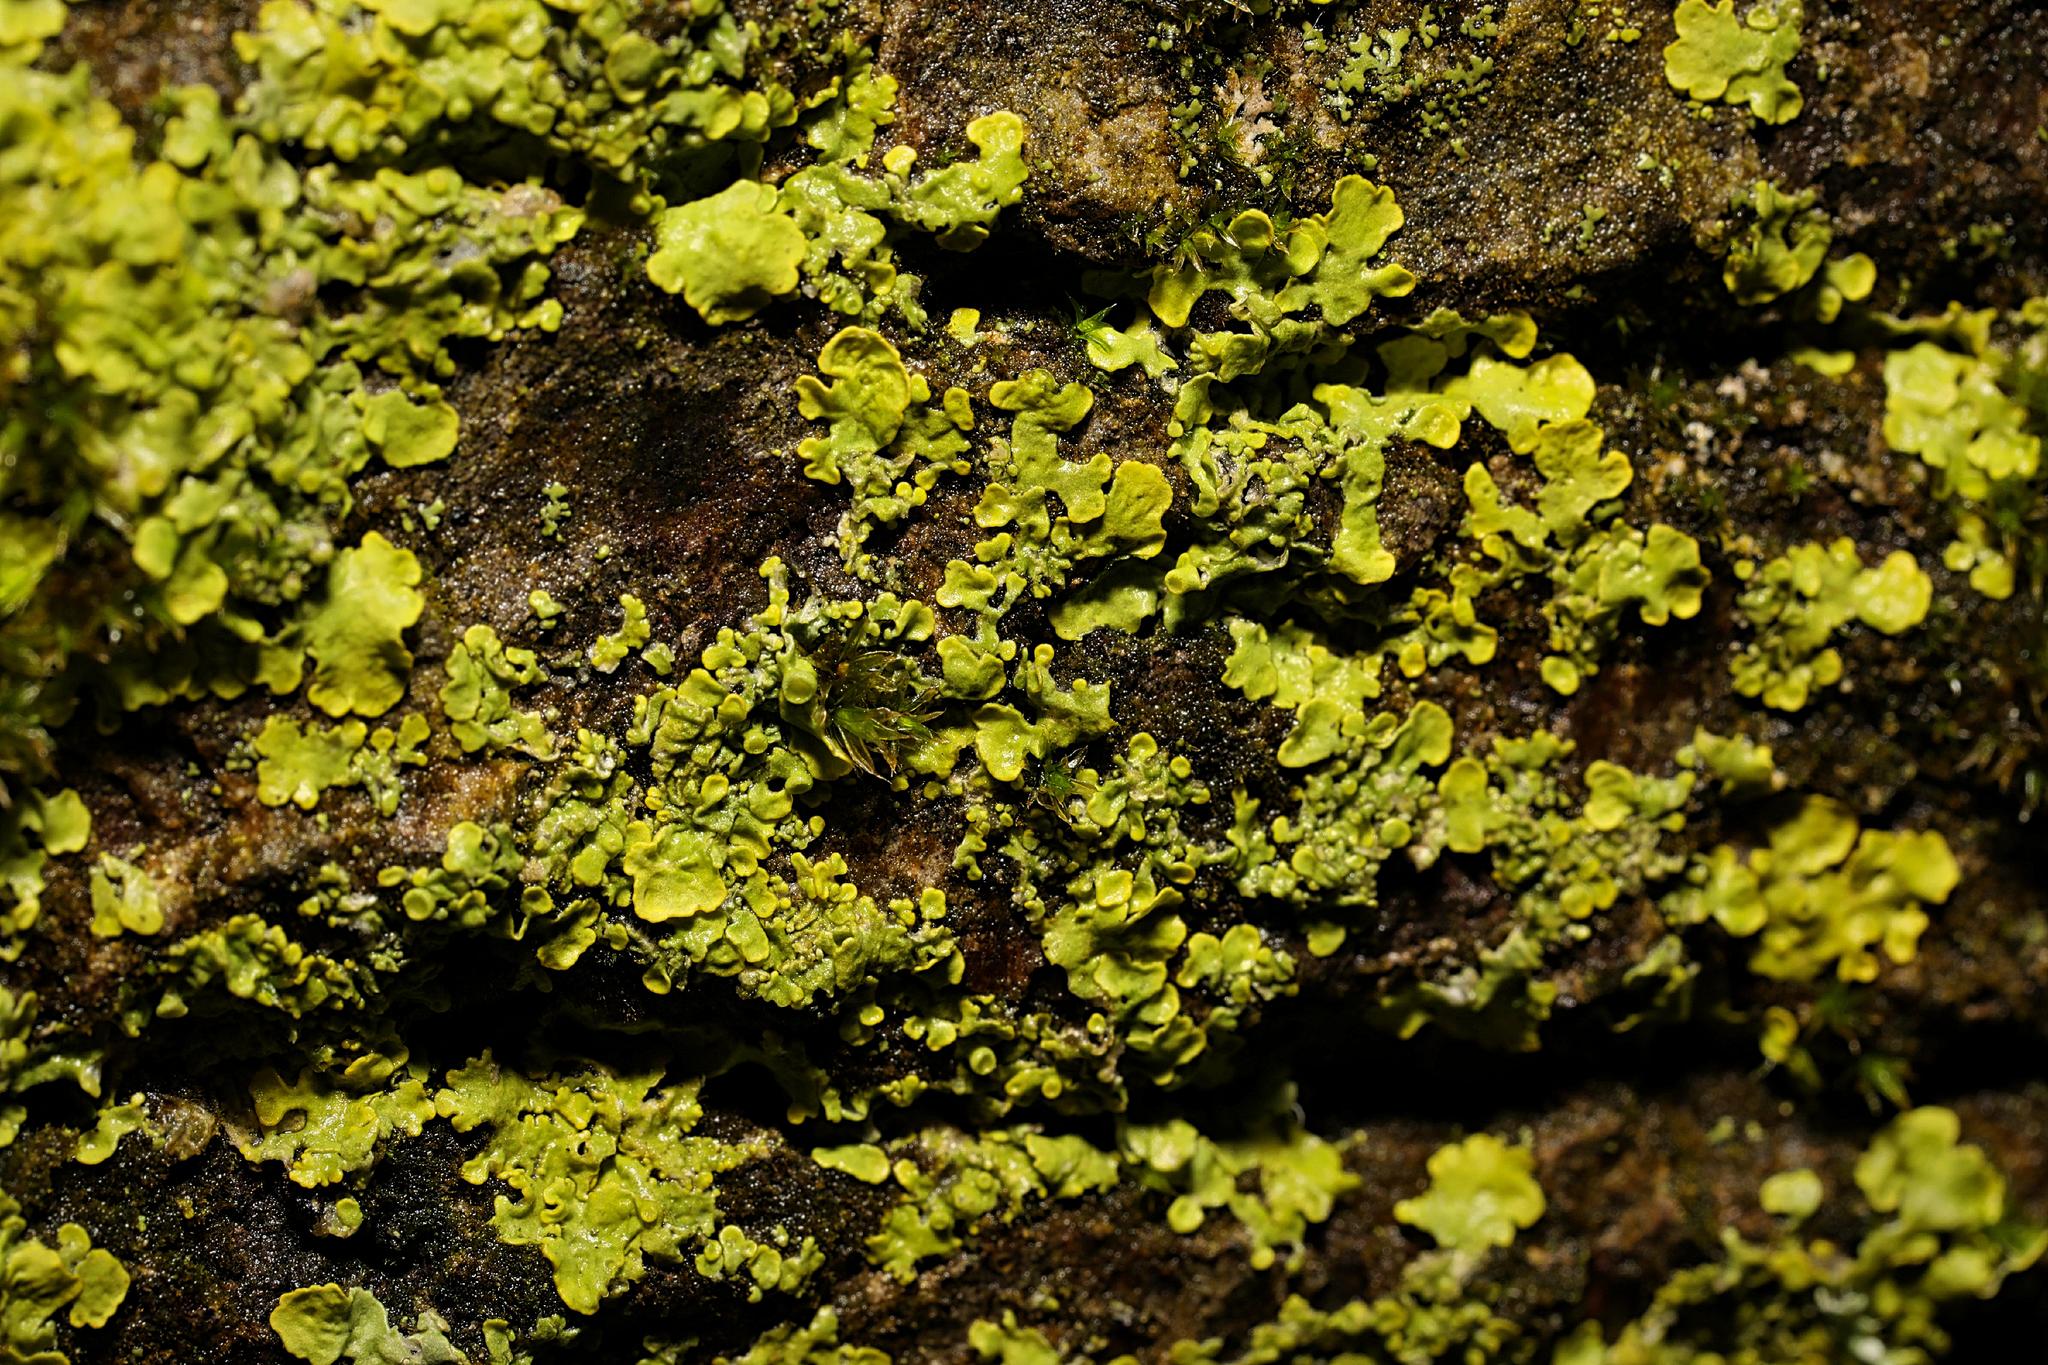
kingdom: Fungi
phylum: Ascomycota
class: Lecanoromycetes
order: Teloschistales
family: Teloschistaceae
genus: Xanthoria
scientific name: Xanthoria parietina
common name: Common orange lichen
